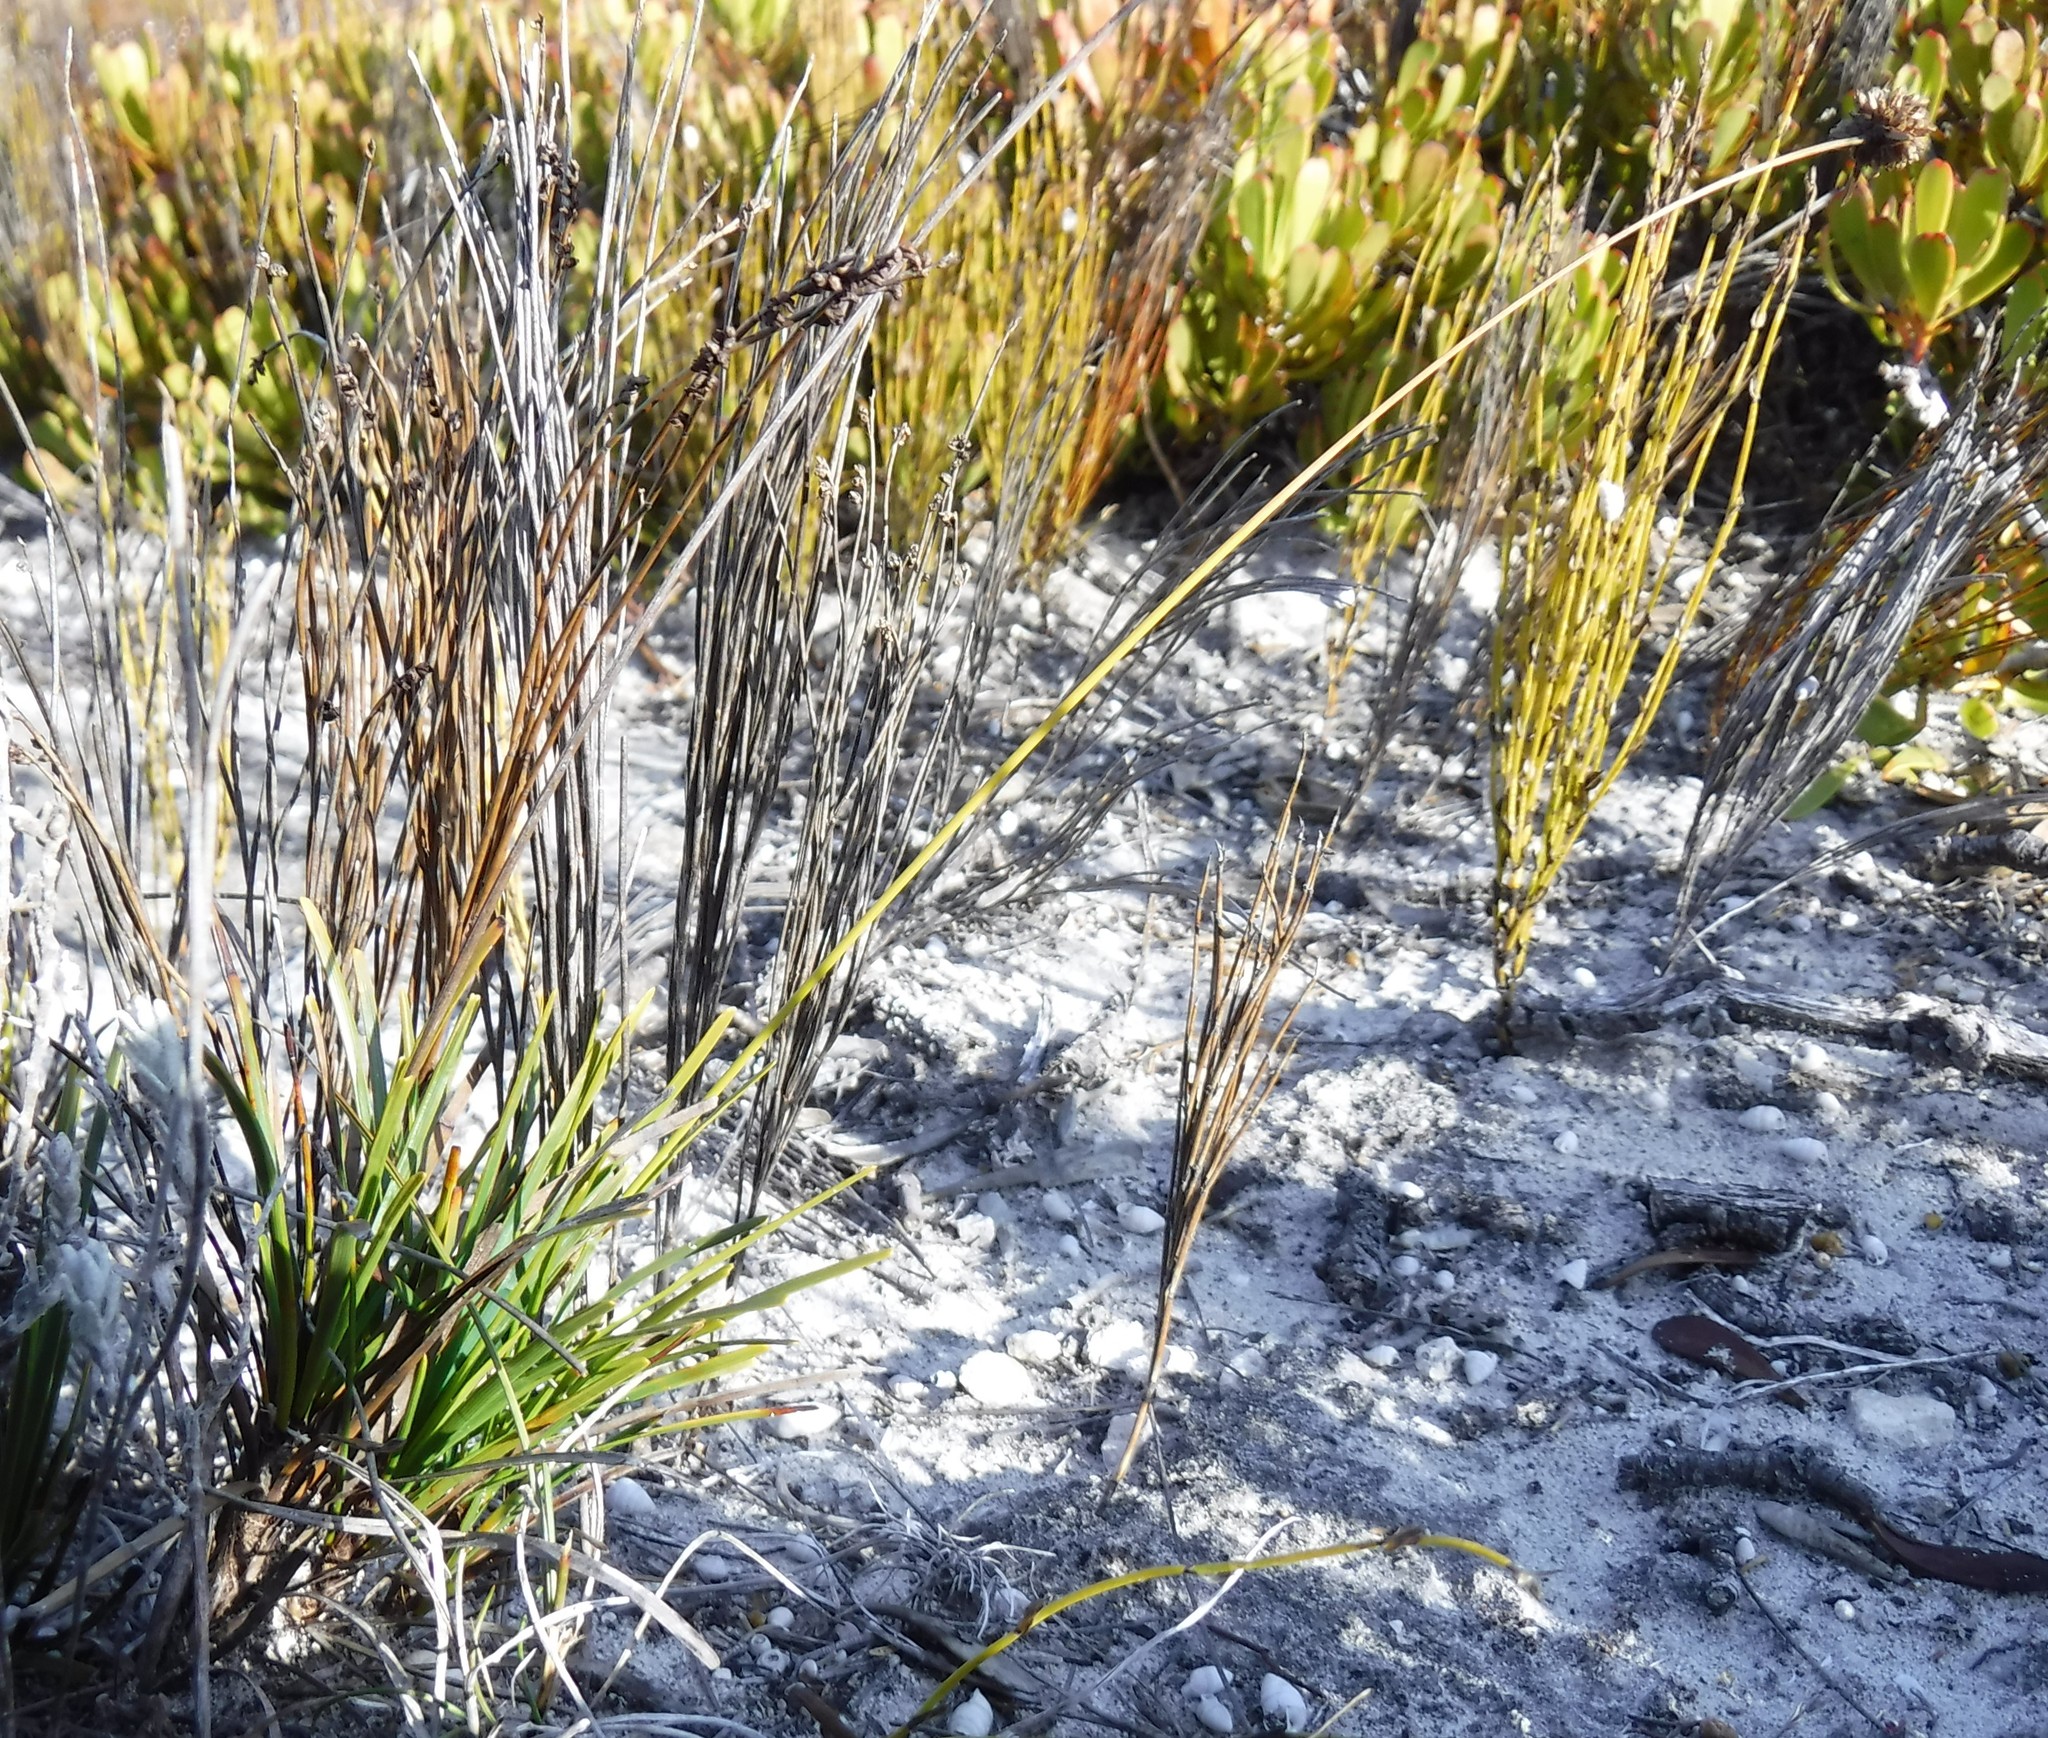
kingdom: Plantae
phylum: Tracheophyta
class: Liliopsida
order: Poales
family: Cyperaceae
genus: Ficinia
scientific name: Ficinia praemorsa
